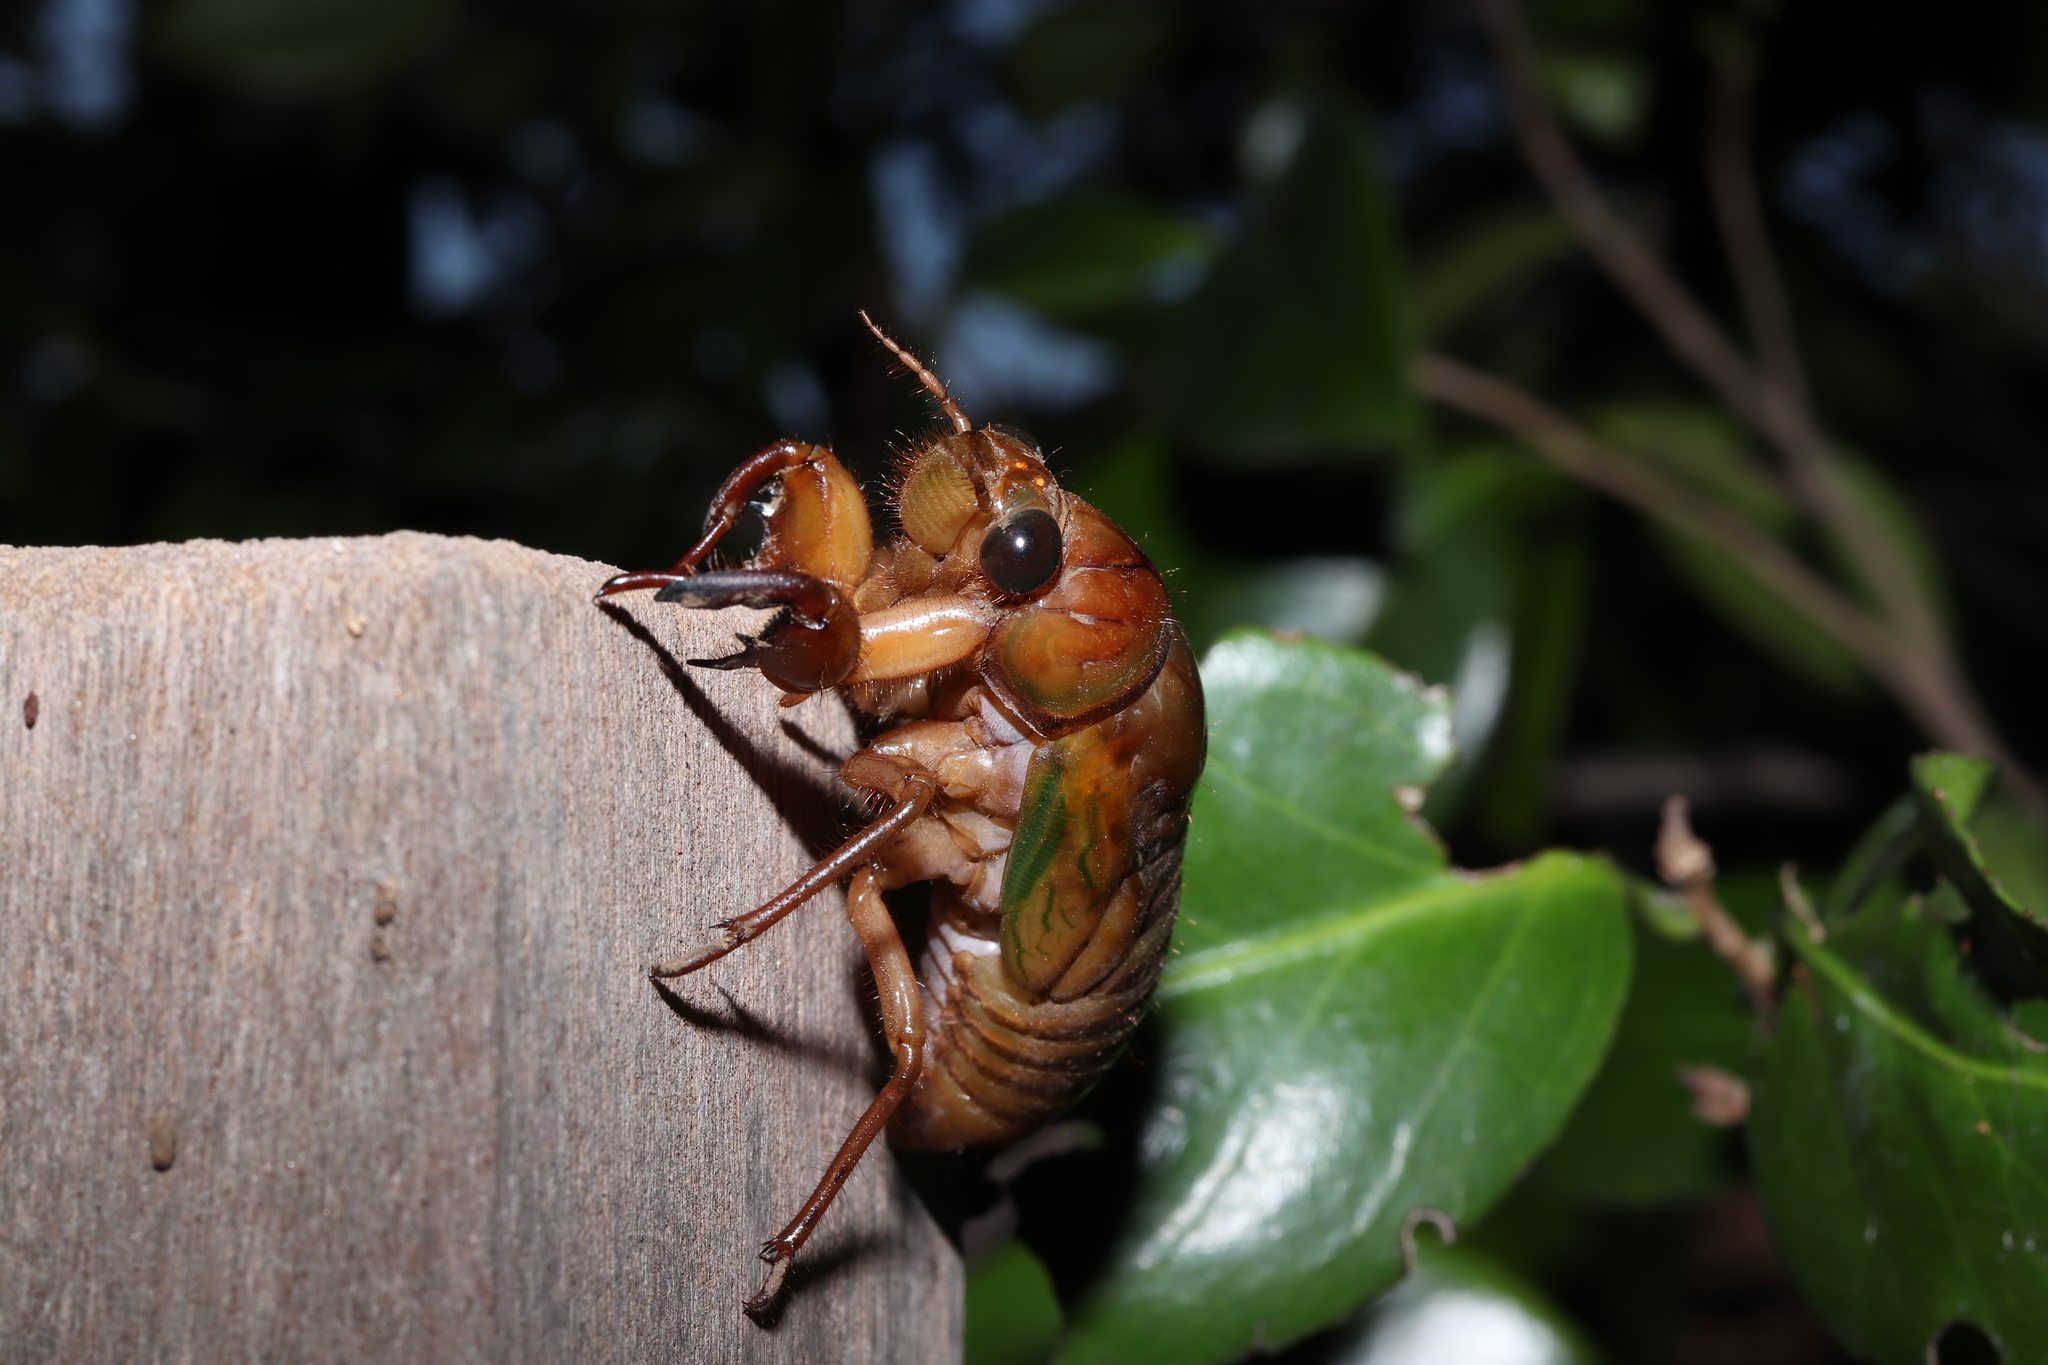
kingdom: Animalia
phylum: Arthropoda
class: Insecta
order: Hemiptera
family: Cicadidae
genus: Graptopsaltria
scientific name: Graptopsaltria nigrofuscata
